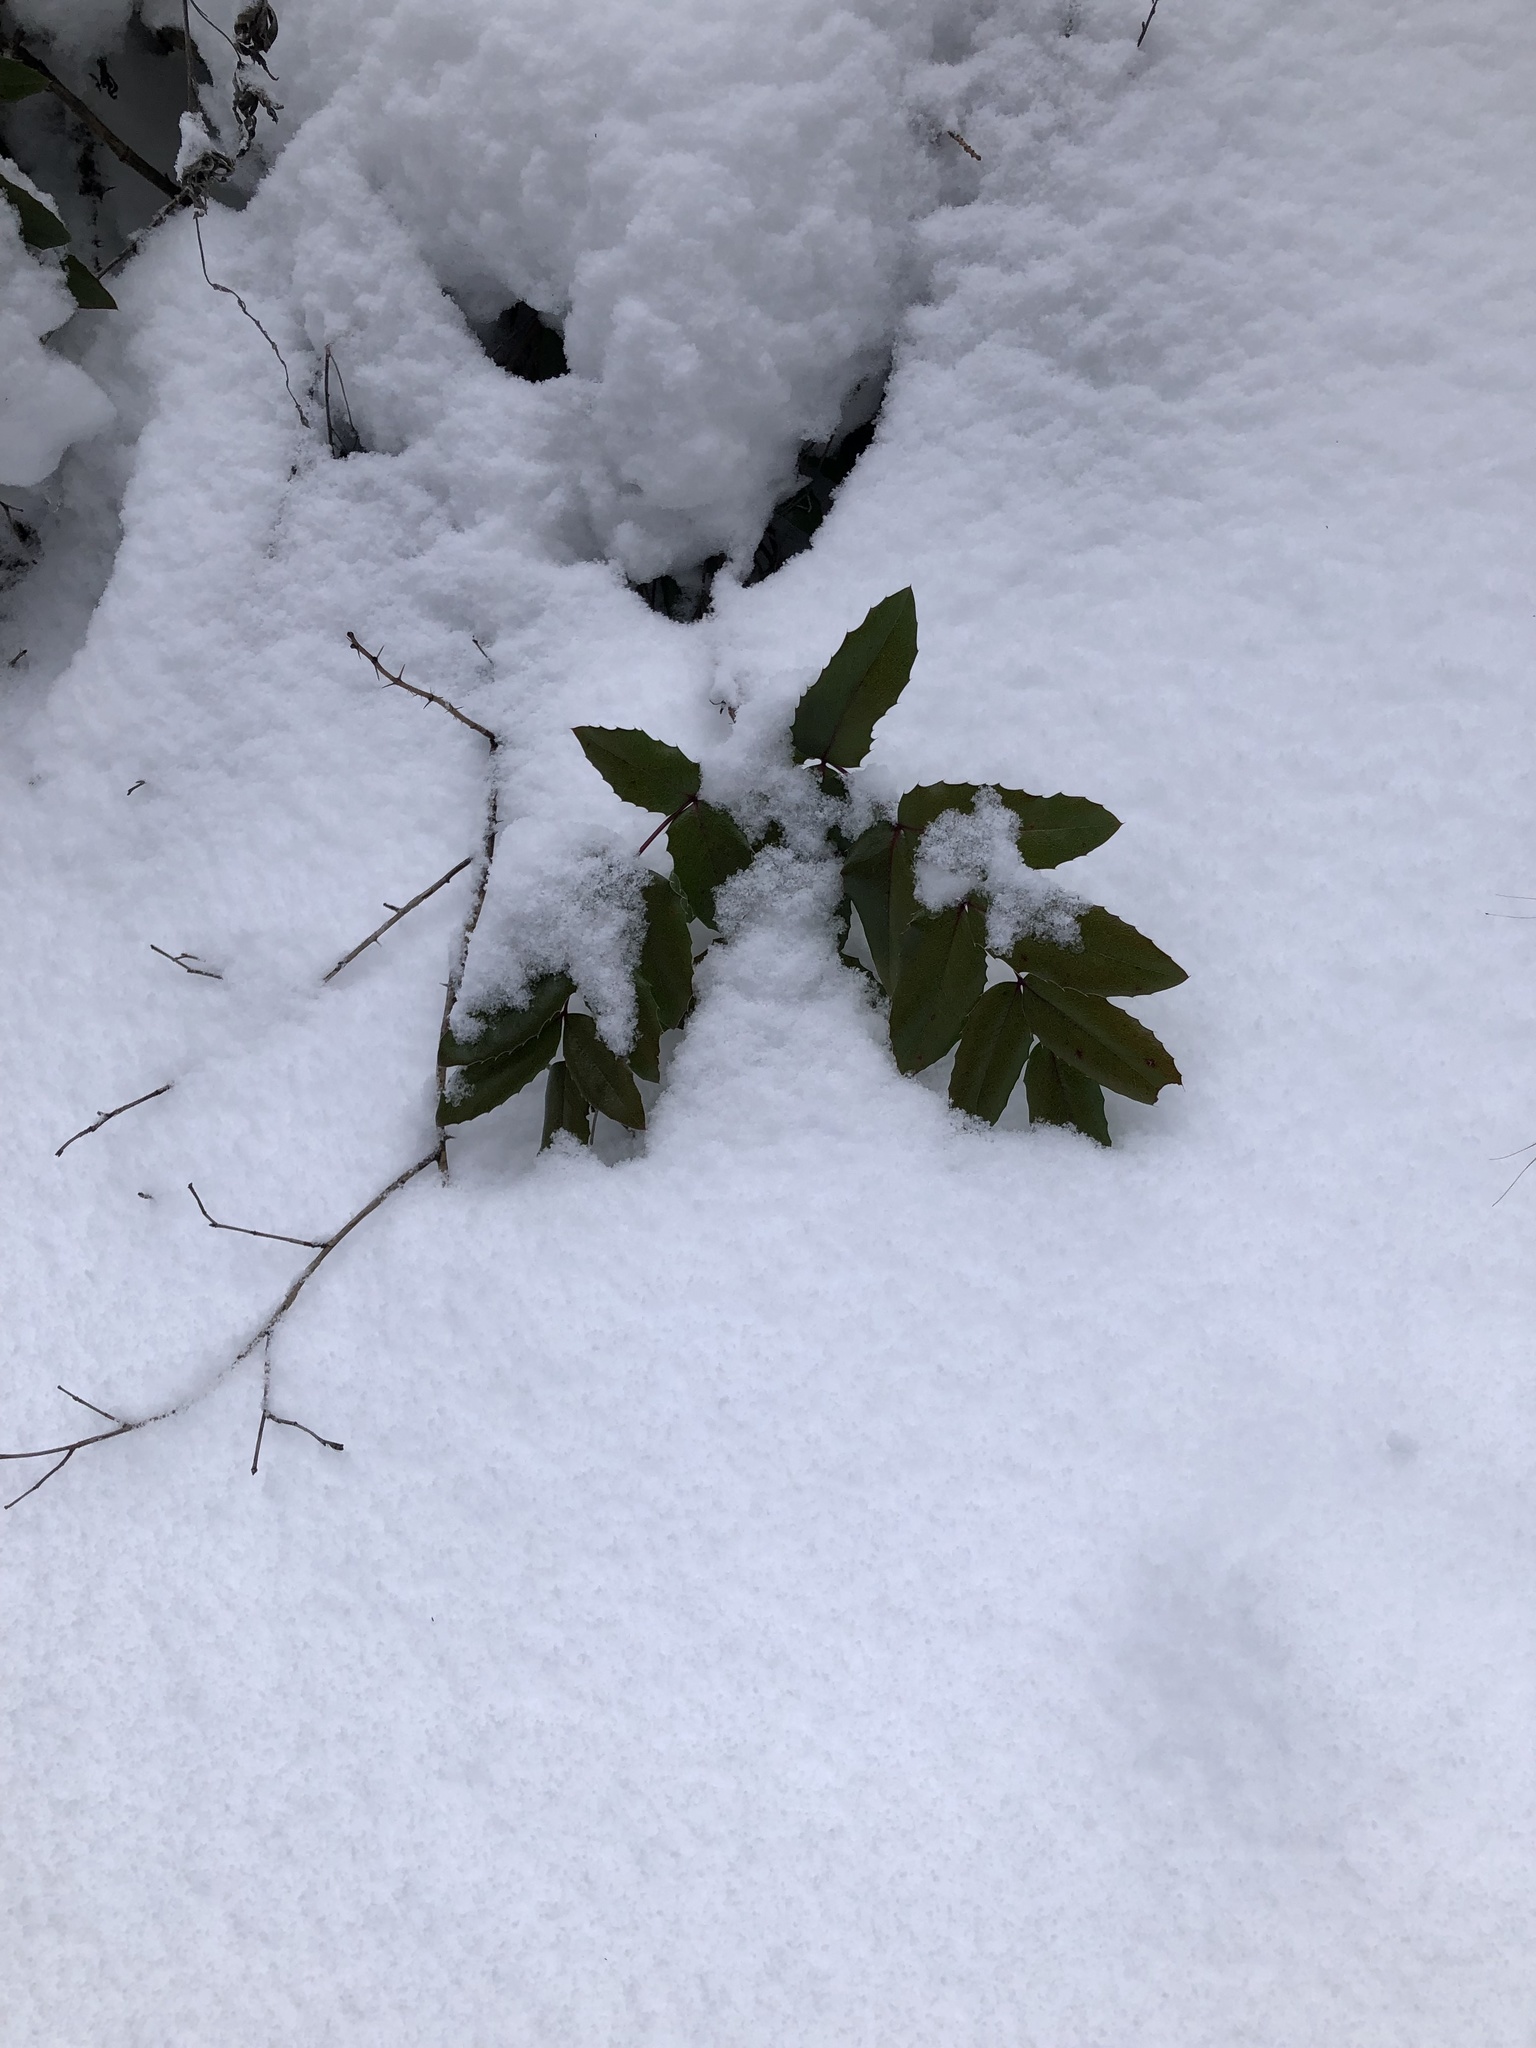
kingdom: Plantae
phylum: Tracheophyta
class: Magnoliopsida
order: Ranunculales
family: Berberidaceae
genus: Mahonia
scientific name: Mahonia aquifolium
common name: Oregon-grape
